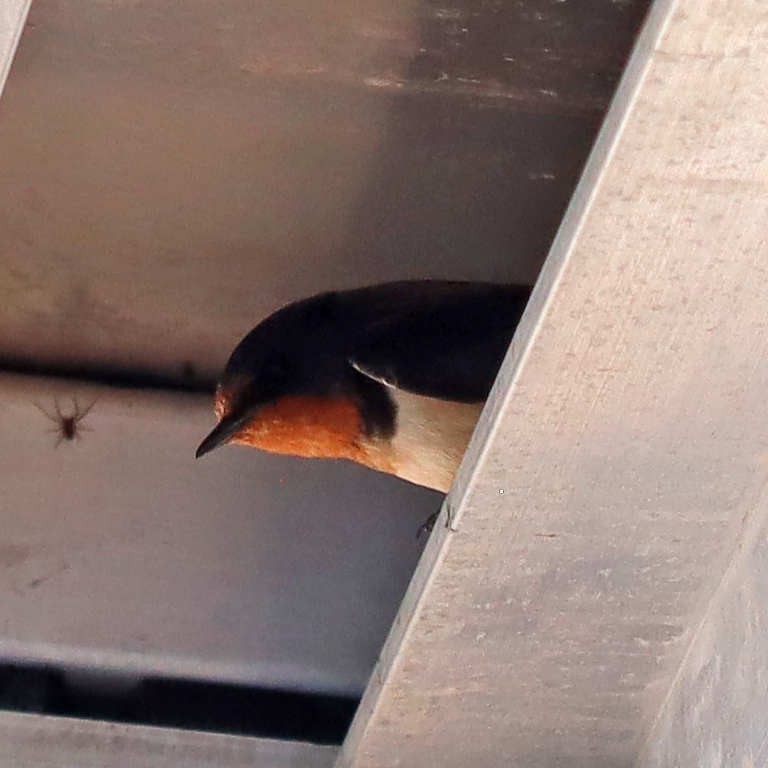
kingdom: Animalia
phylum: Chordata
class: Aves
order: Passeriformes
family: Hirundinidae
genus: Hirundo
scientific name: Hirundo rustica
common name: Barn swallow
